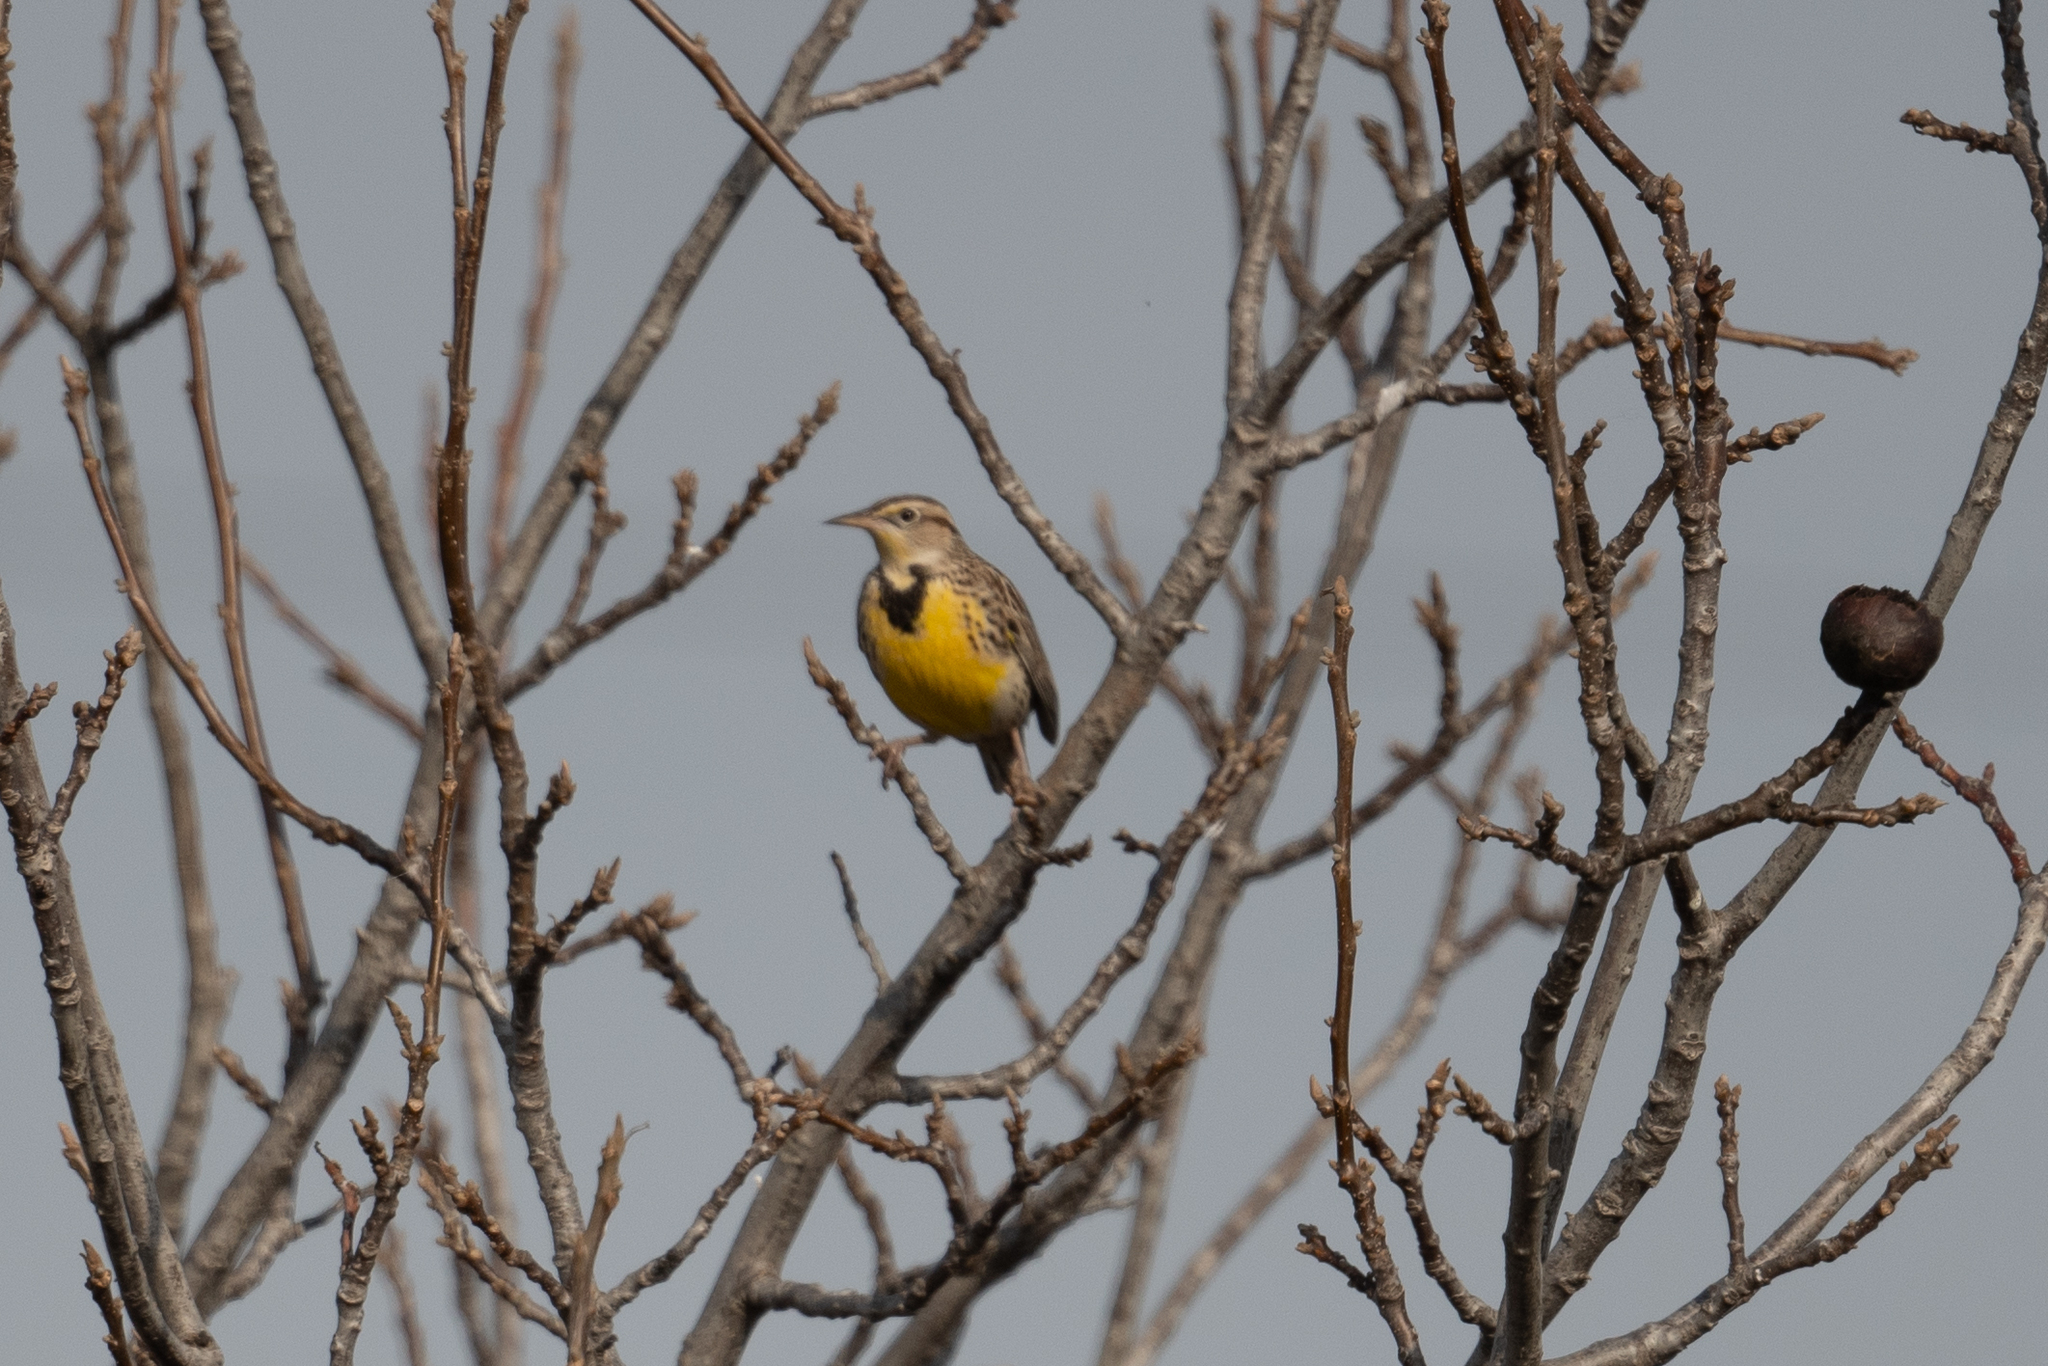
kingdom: Animalia
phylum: Chordata
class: Aves
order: Passeriformes
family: Icteridae
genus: Sturnella
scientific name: Sturnella neglecta
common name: Western meadowlark
